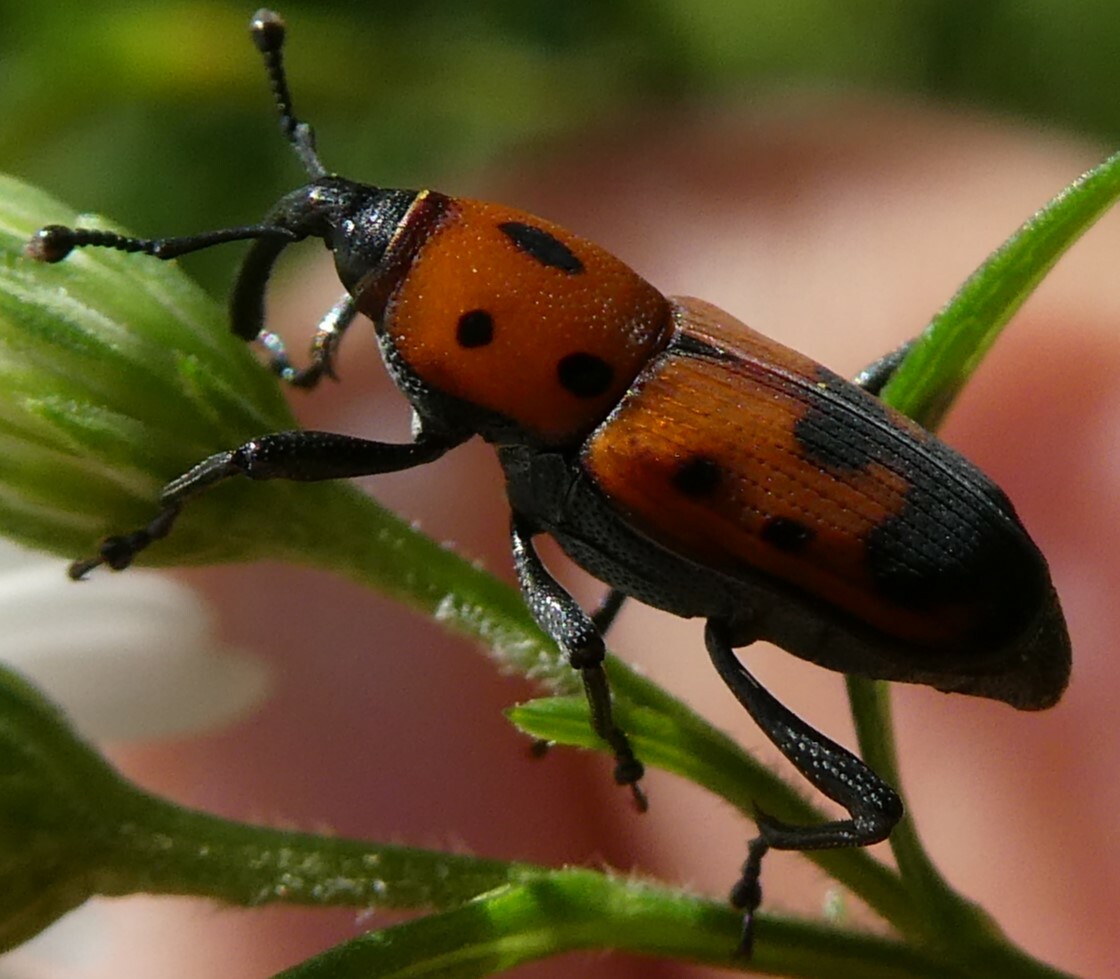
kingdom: Animalia
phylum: Arthropoda
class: Insecta
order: Coleoptera
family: Dryophthoridae
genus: Rhodobaenus
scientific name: Rhodobaenus quinquepunctatus
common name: Cocklebur weevil
